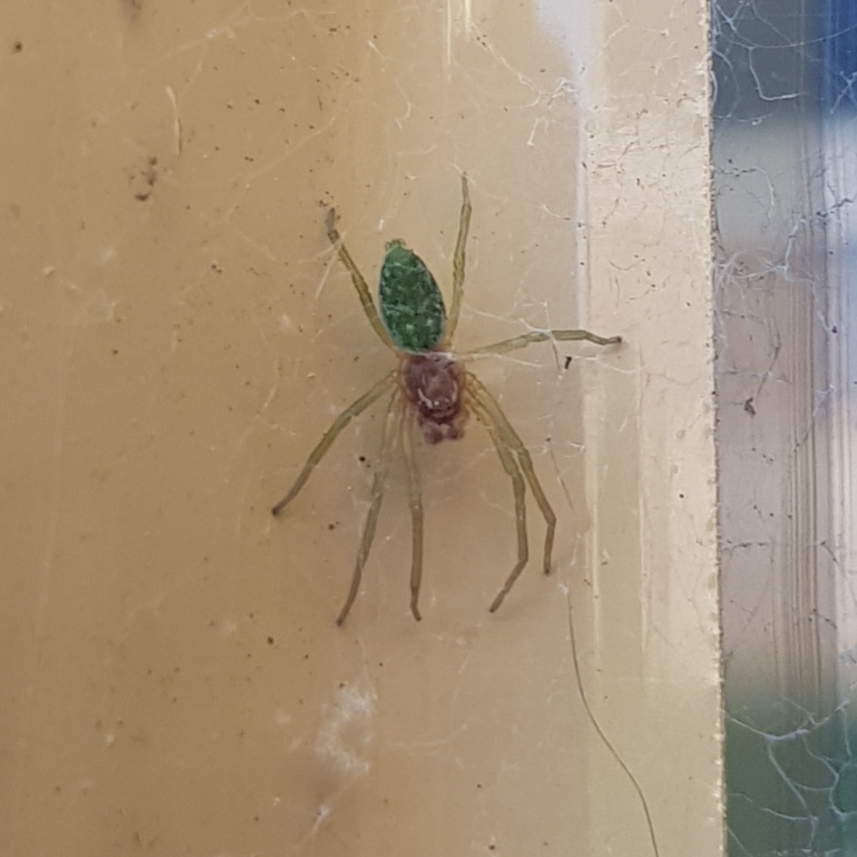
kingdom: Animalia
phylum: Arthropoda
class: Arachnida
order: Araneae
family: Dictynidae
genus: Nigma
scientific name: Nigma walckenaeri
